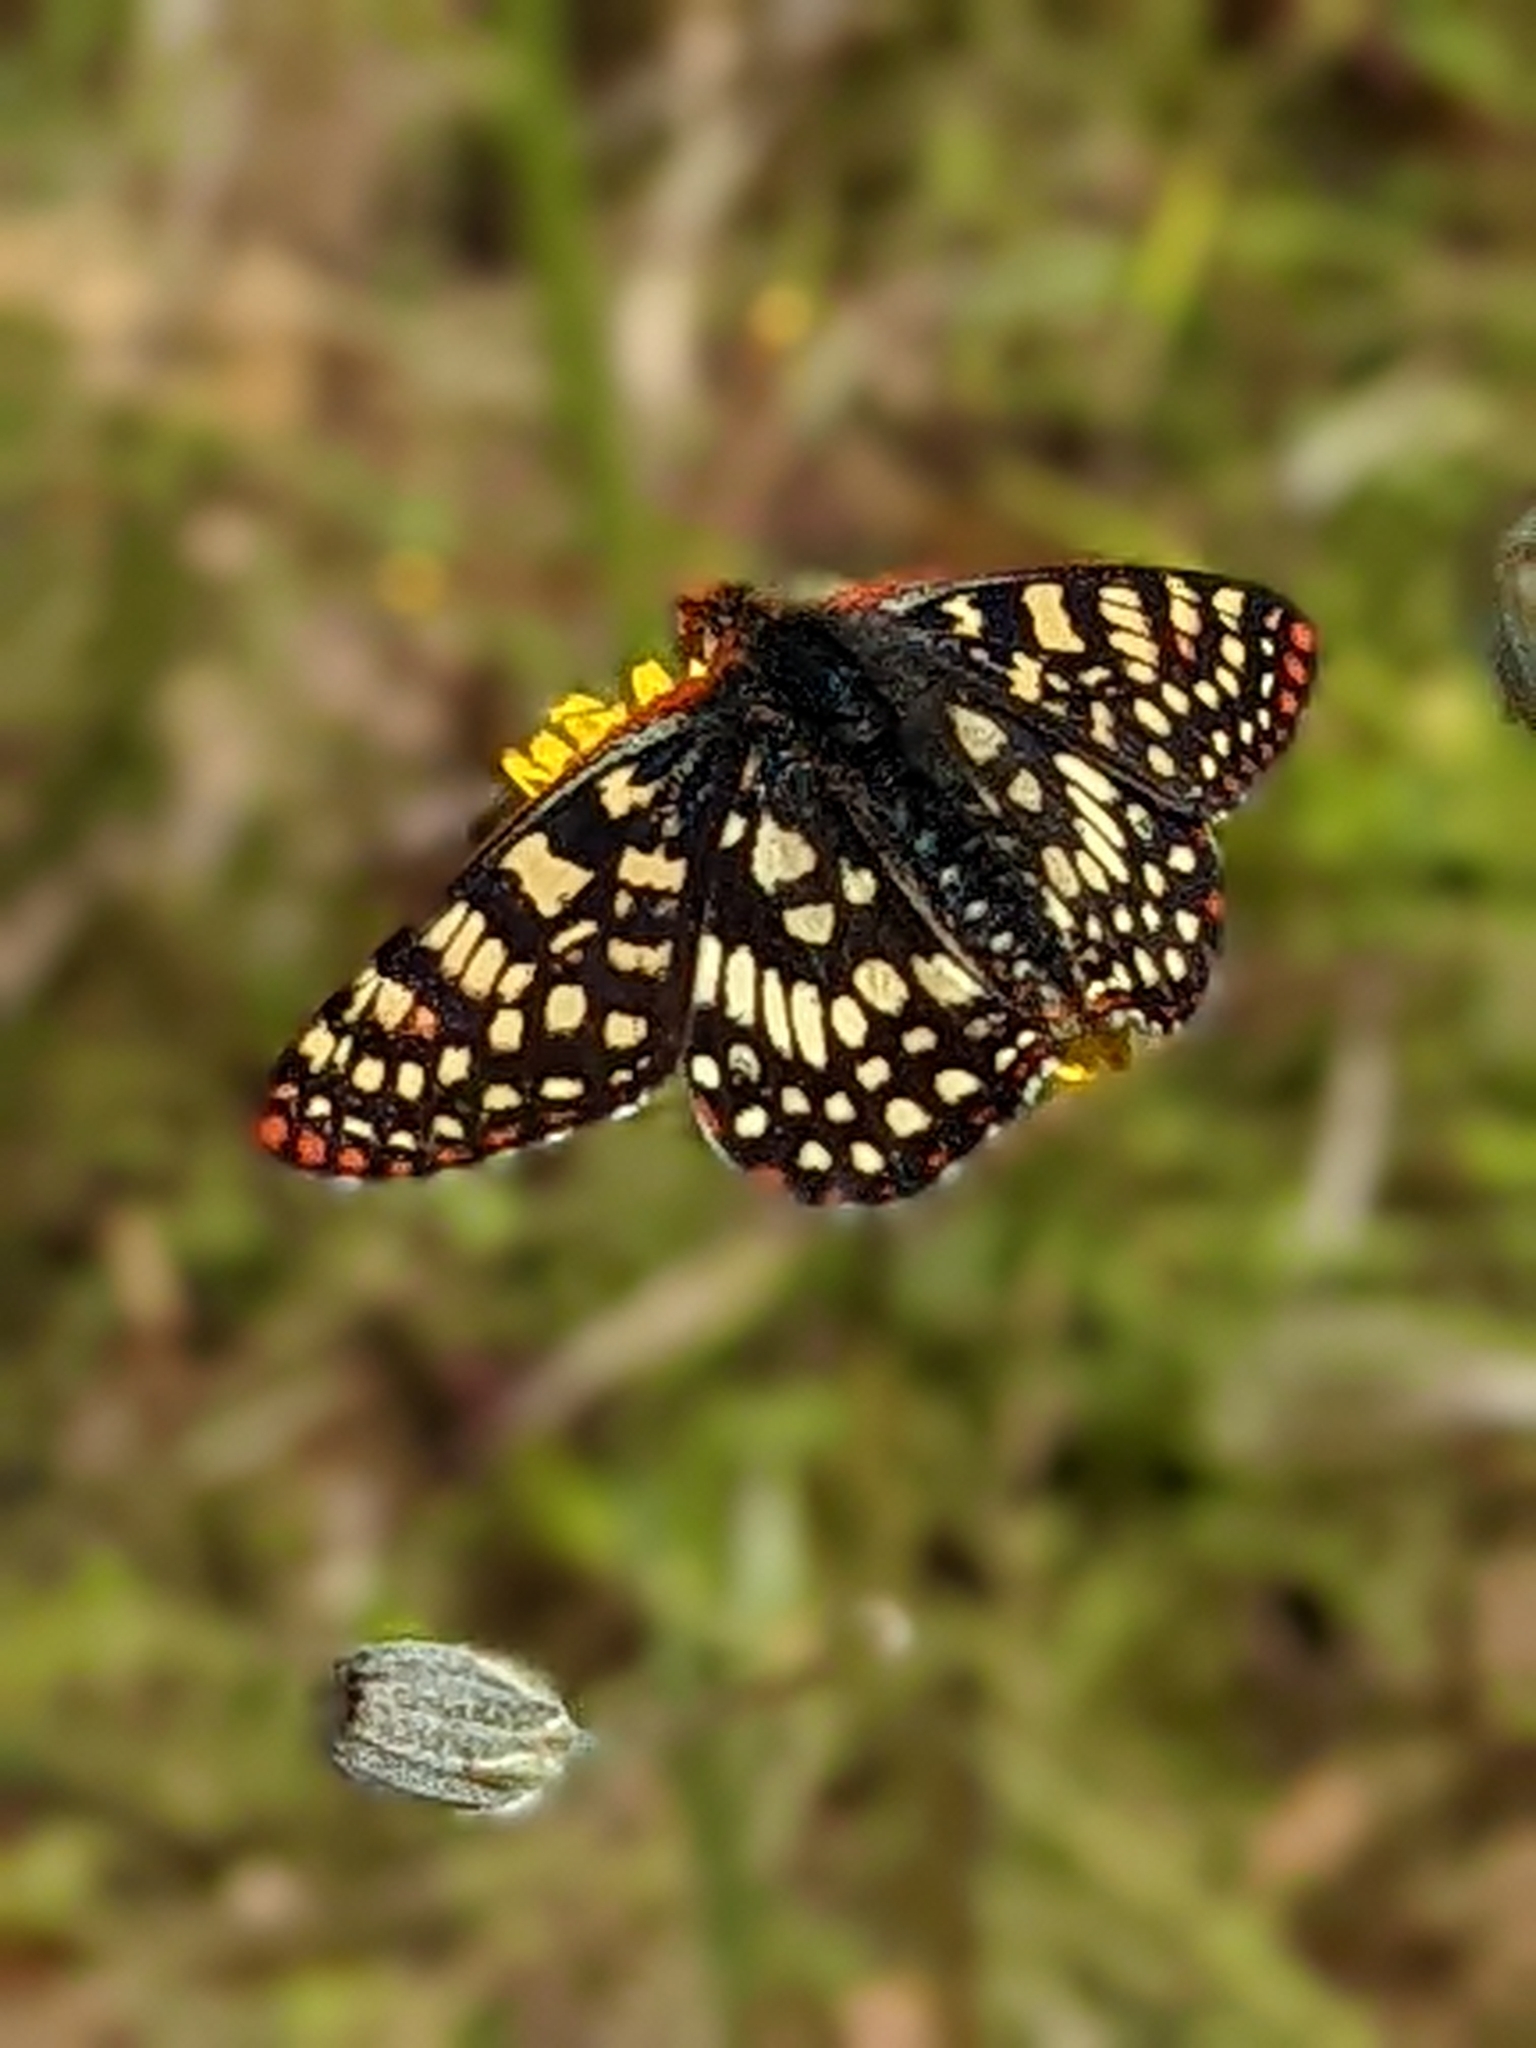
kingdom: Animalia
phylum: Arthropoda
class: Insecta
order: Lepidoptera
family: Nymphalidae
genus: Occidryas
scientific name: Occidryas chalcedona
